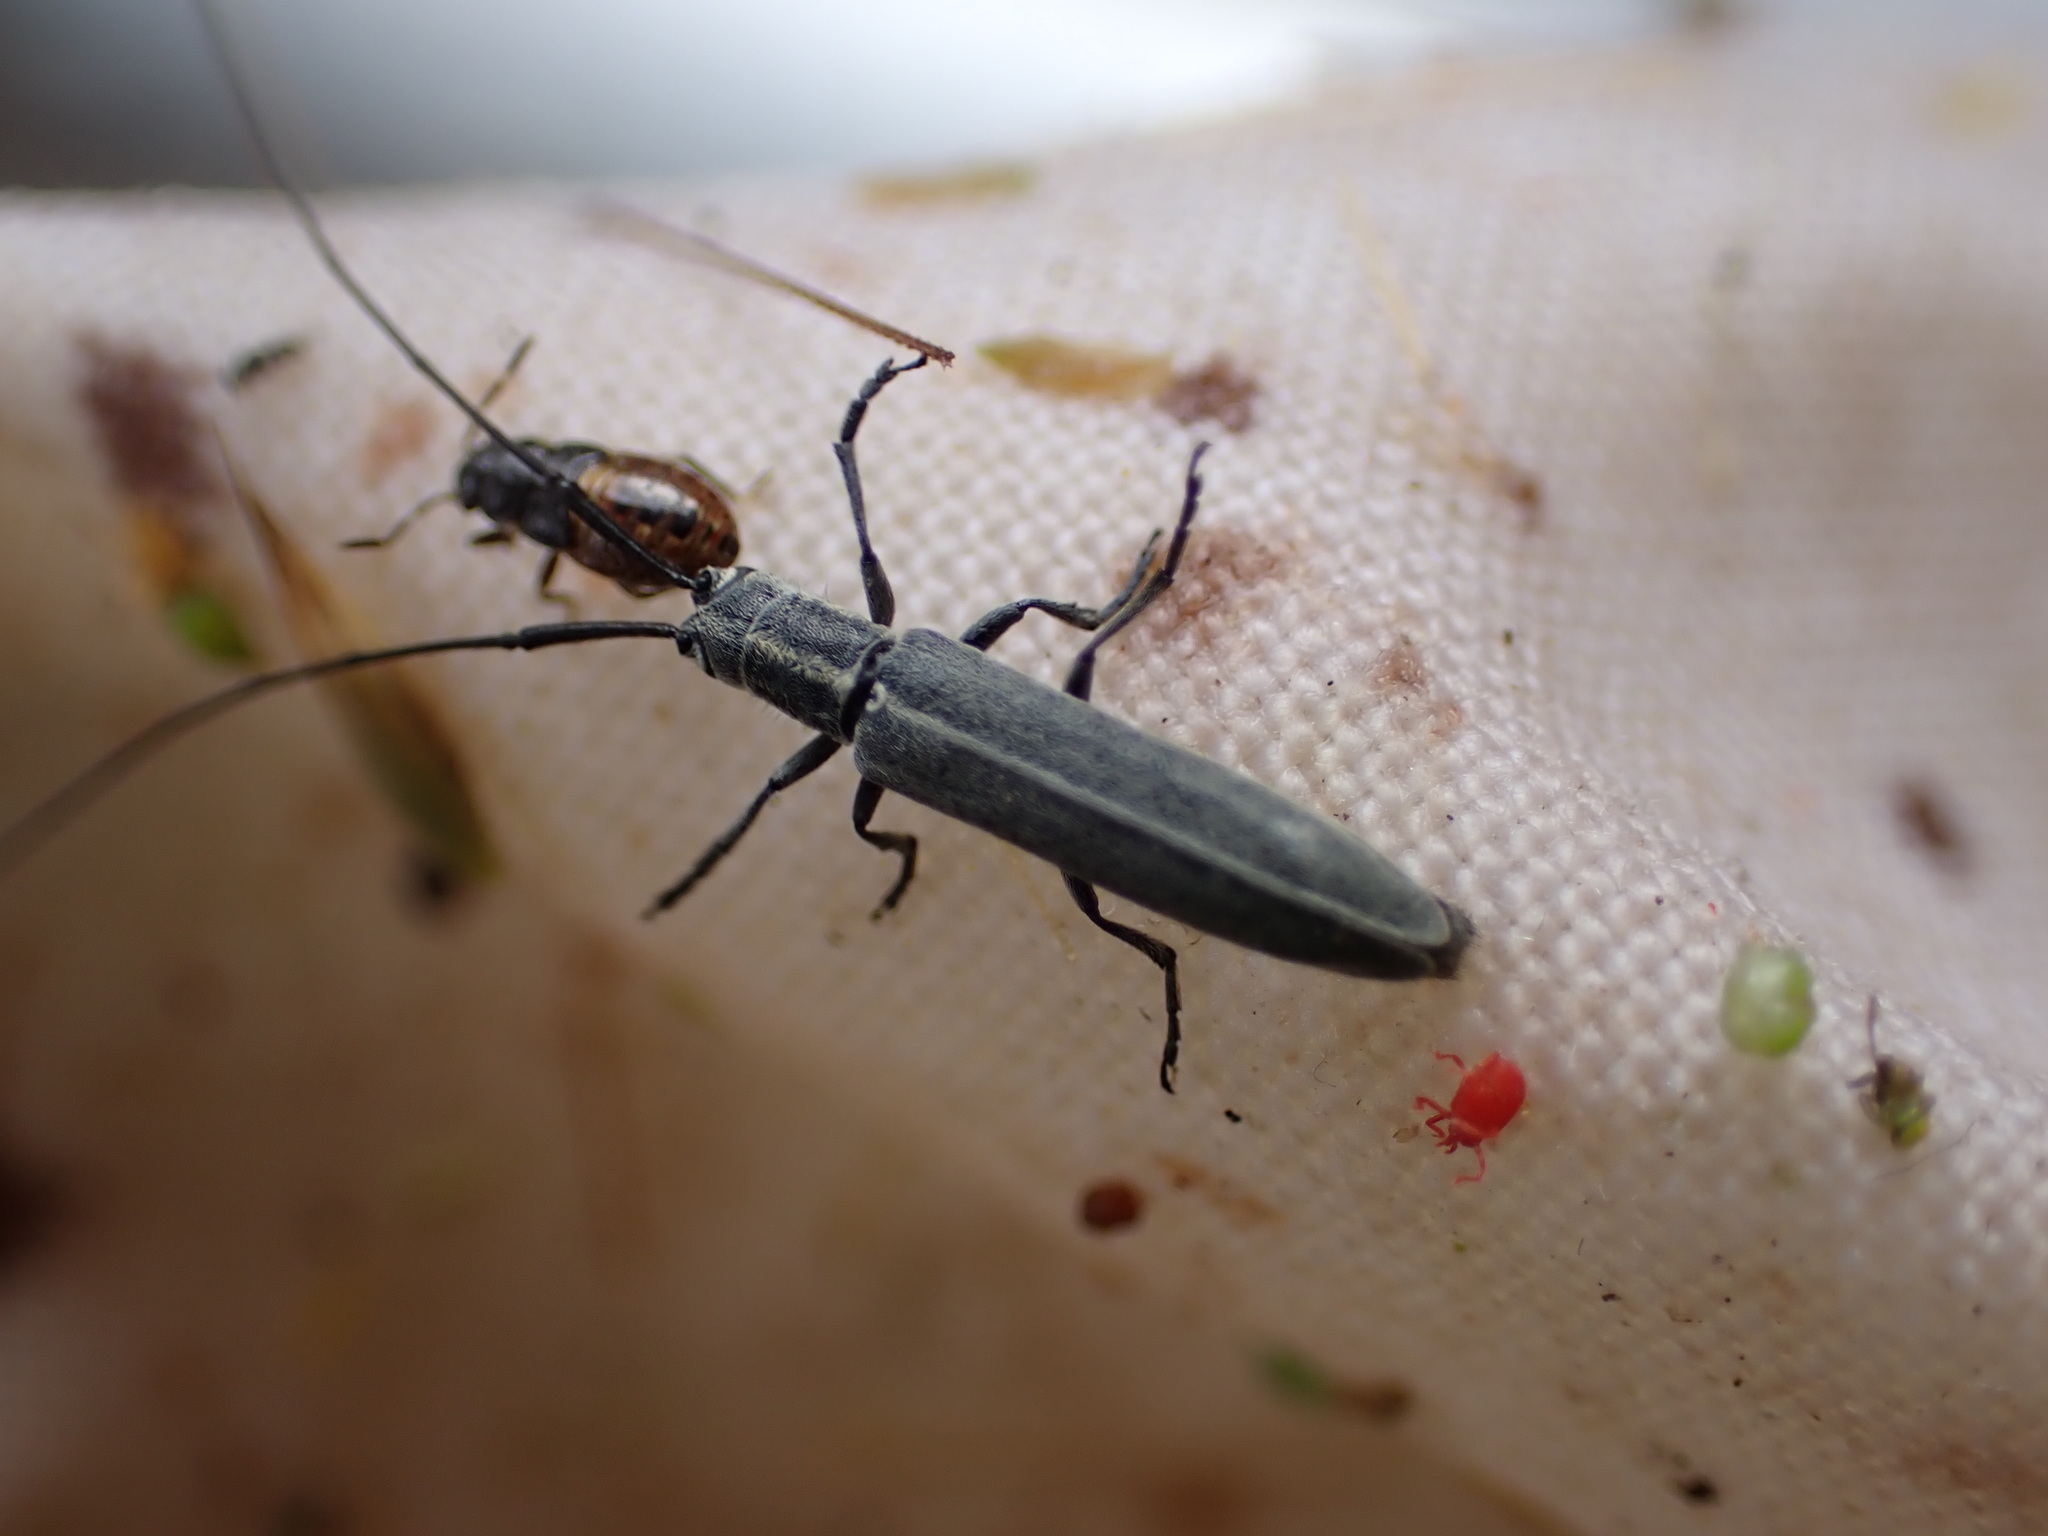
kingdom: Animalia
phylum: Arthropoda
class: Insecta
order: Coleoptera
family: Cerambycidae
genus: Calamobius
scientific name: Calamobius filum
